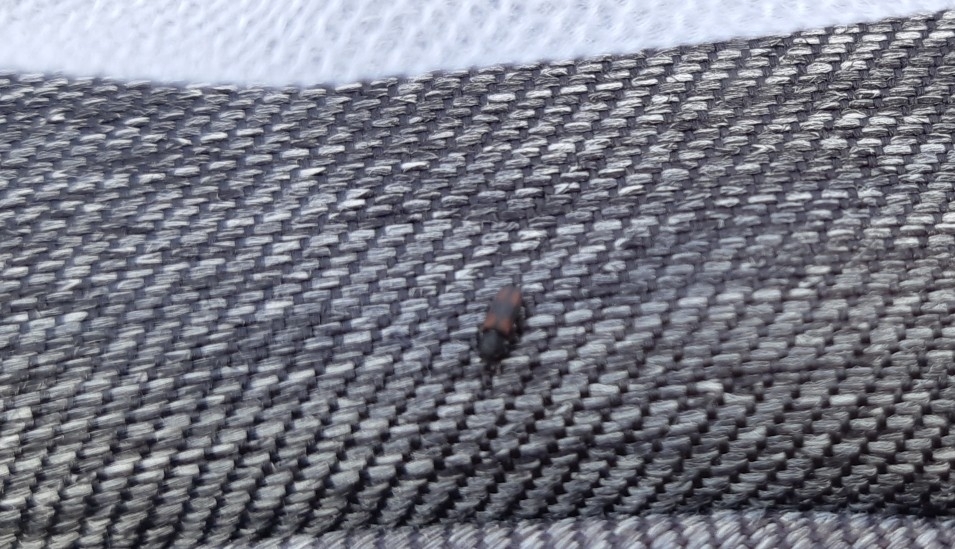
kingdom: Animalia
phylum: Arthropoda
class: Insecta
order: Coleoptera
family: Zopheridae
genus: Bitoma
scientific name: Bitoma crenata
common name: Bark beetle
